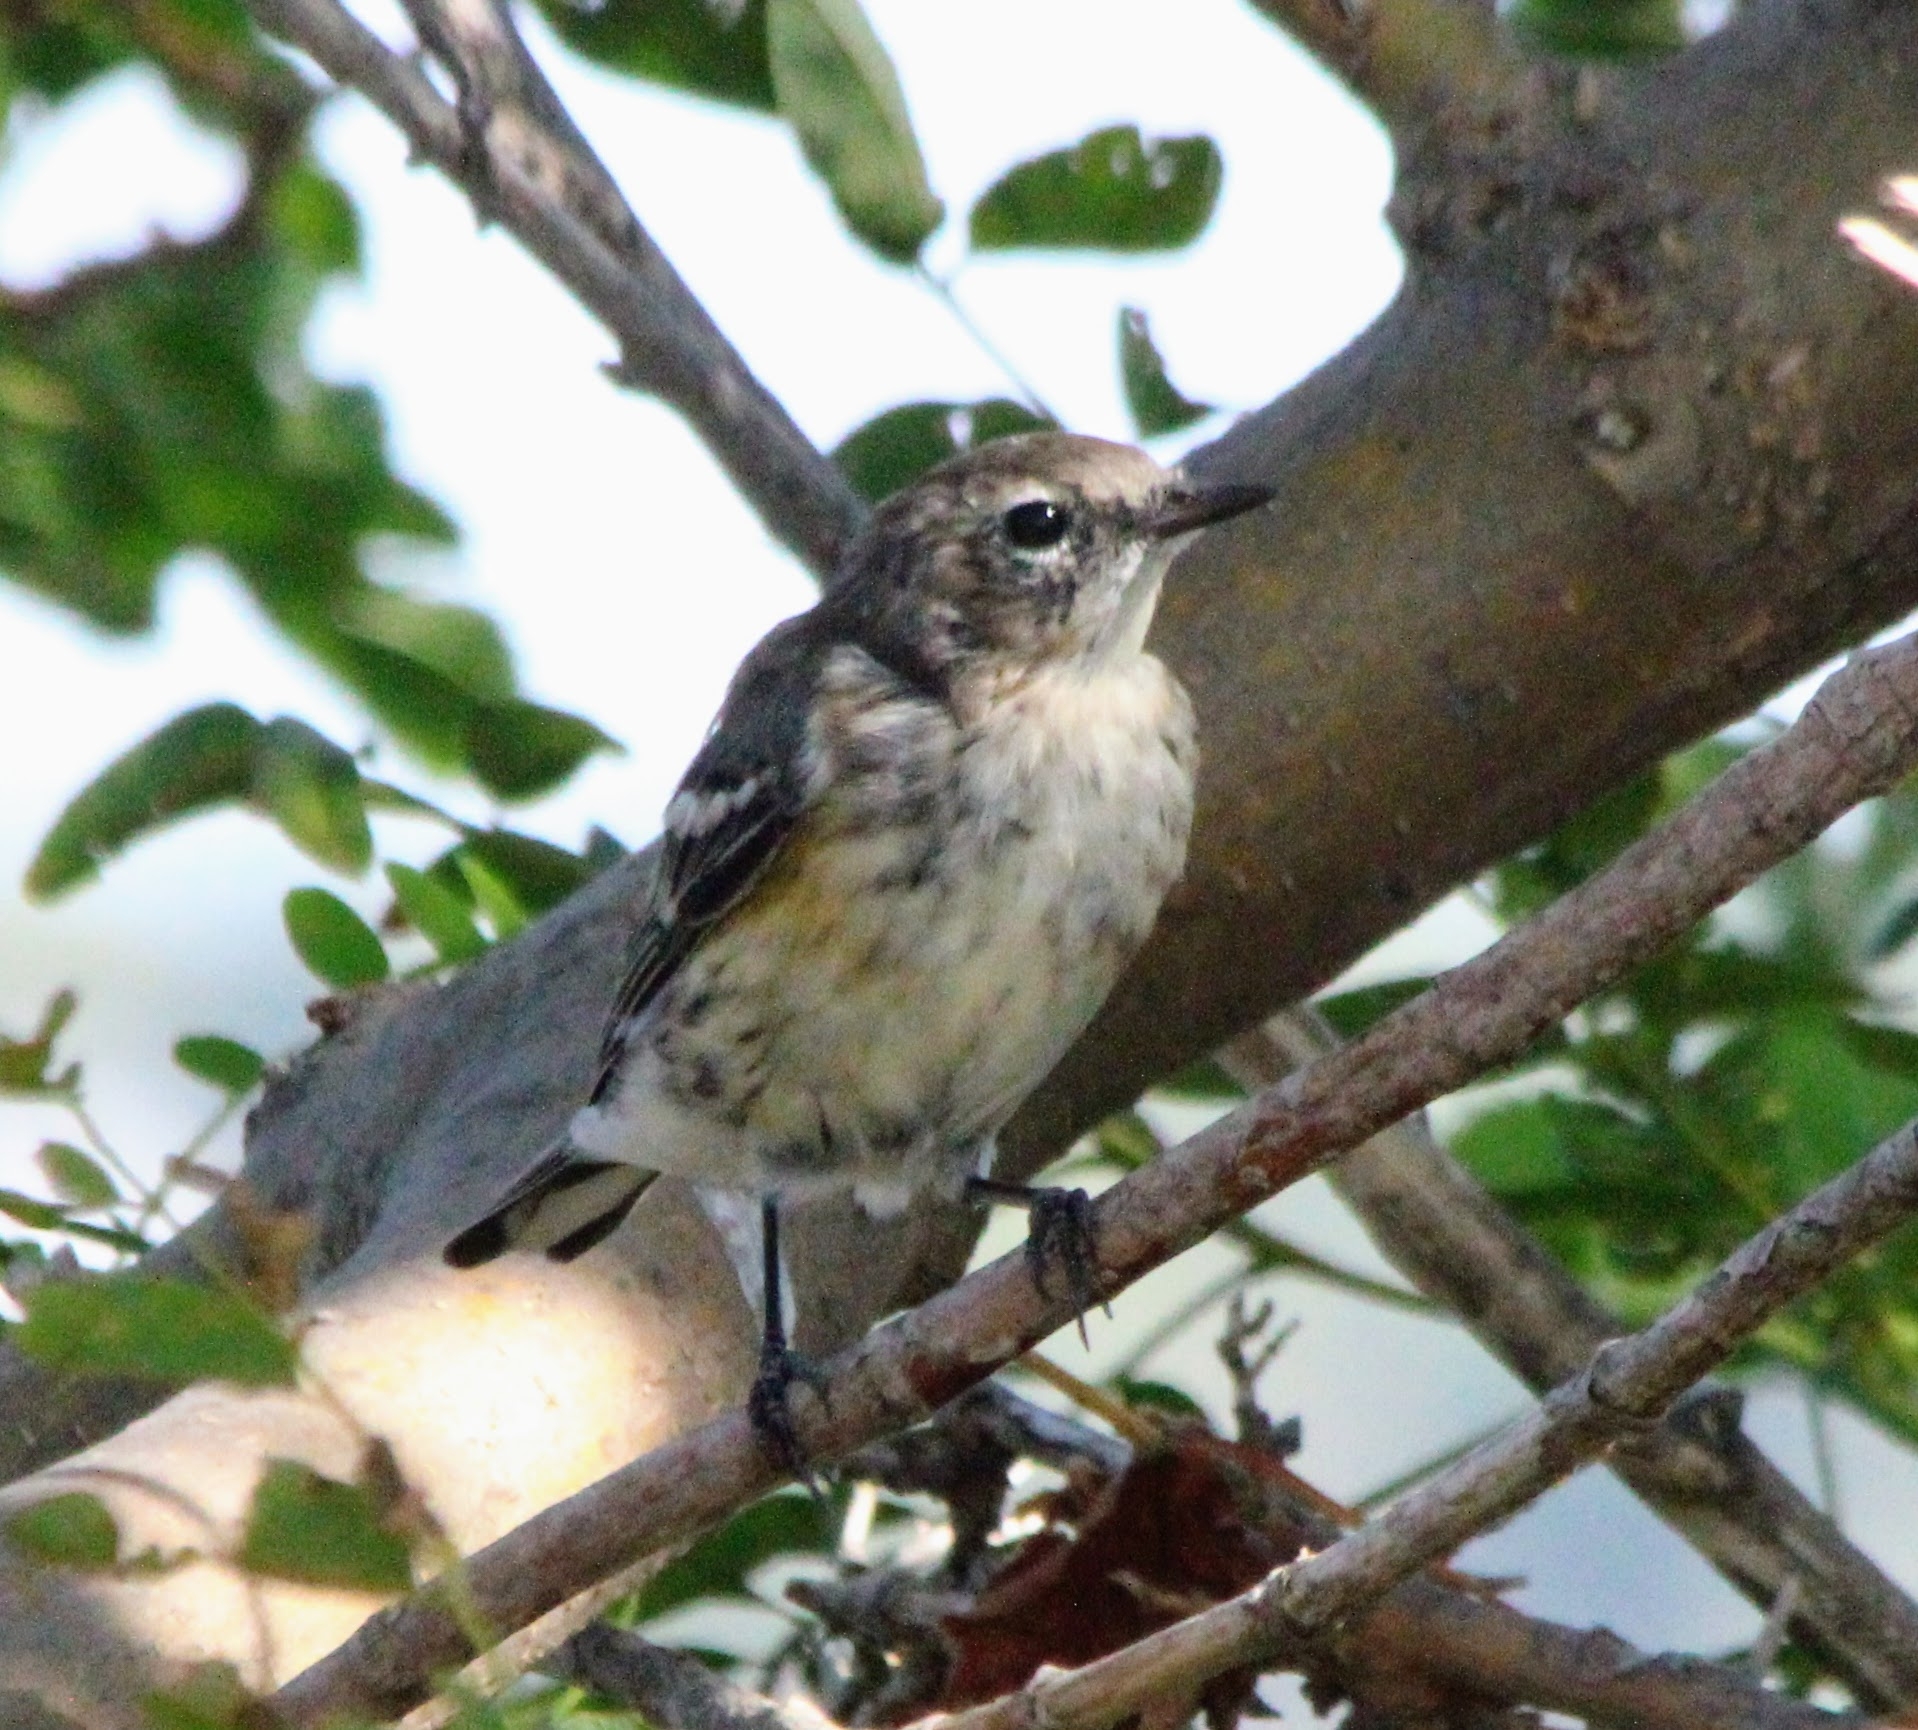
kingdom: Animalia
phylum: Chordata
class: Aves
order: Passeriformes
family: Parulidae
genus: Setophaga
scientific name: Setophaga coronata
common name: Myrtle warbler
